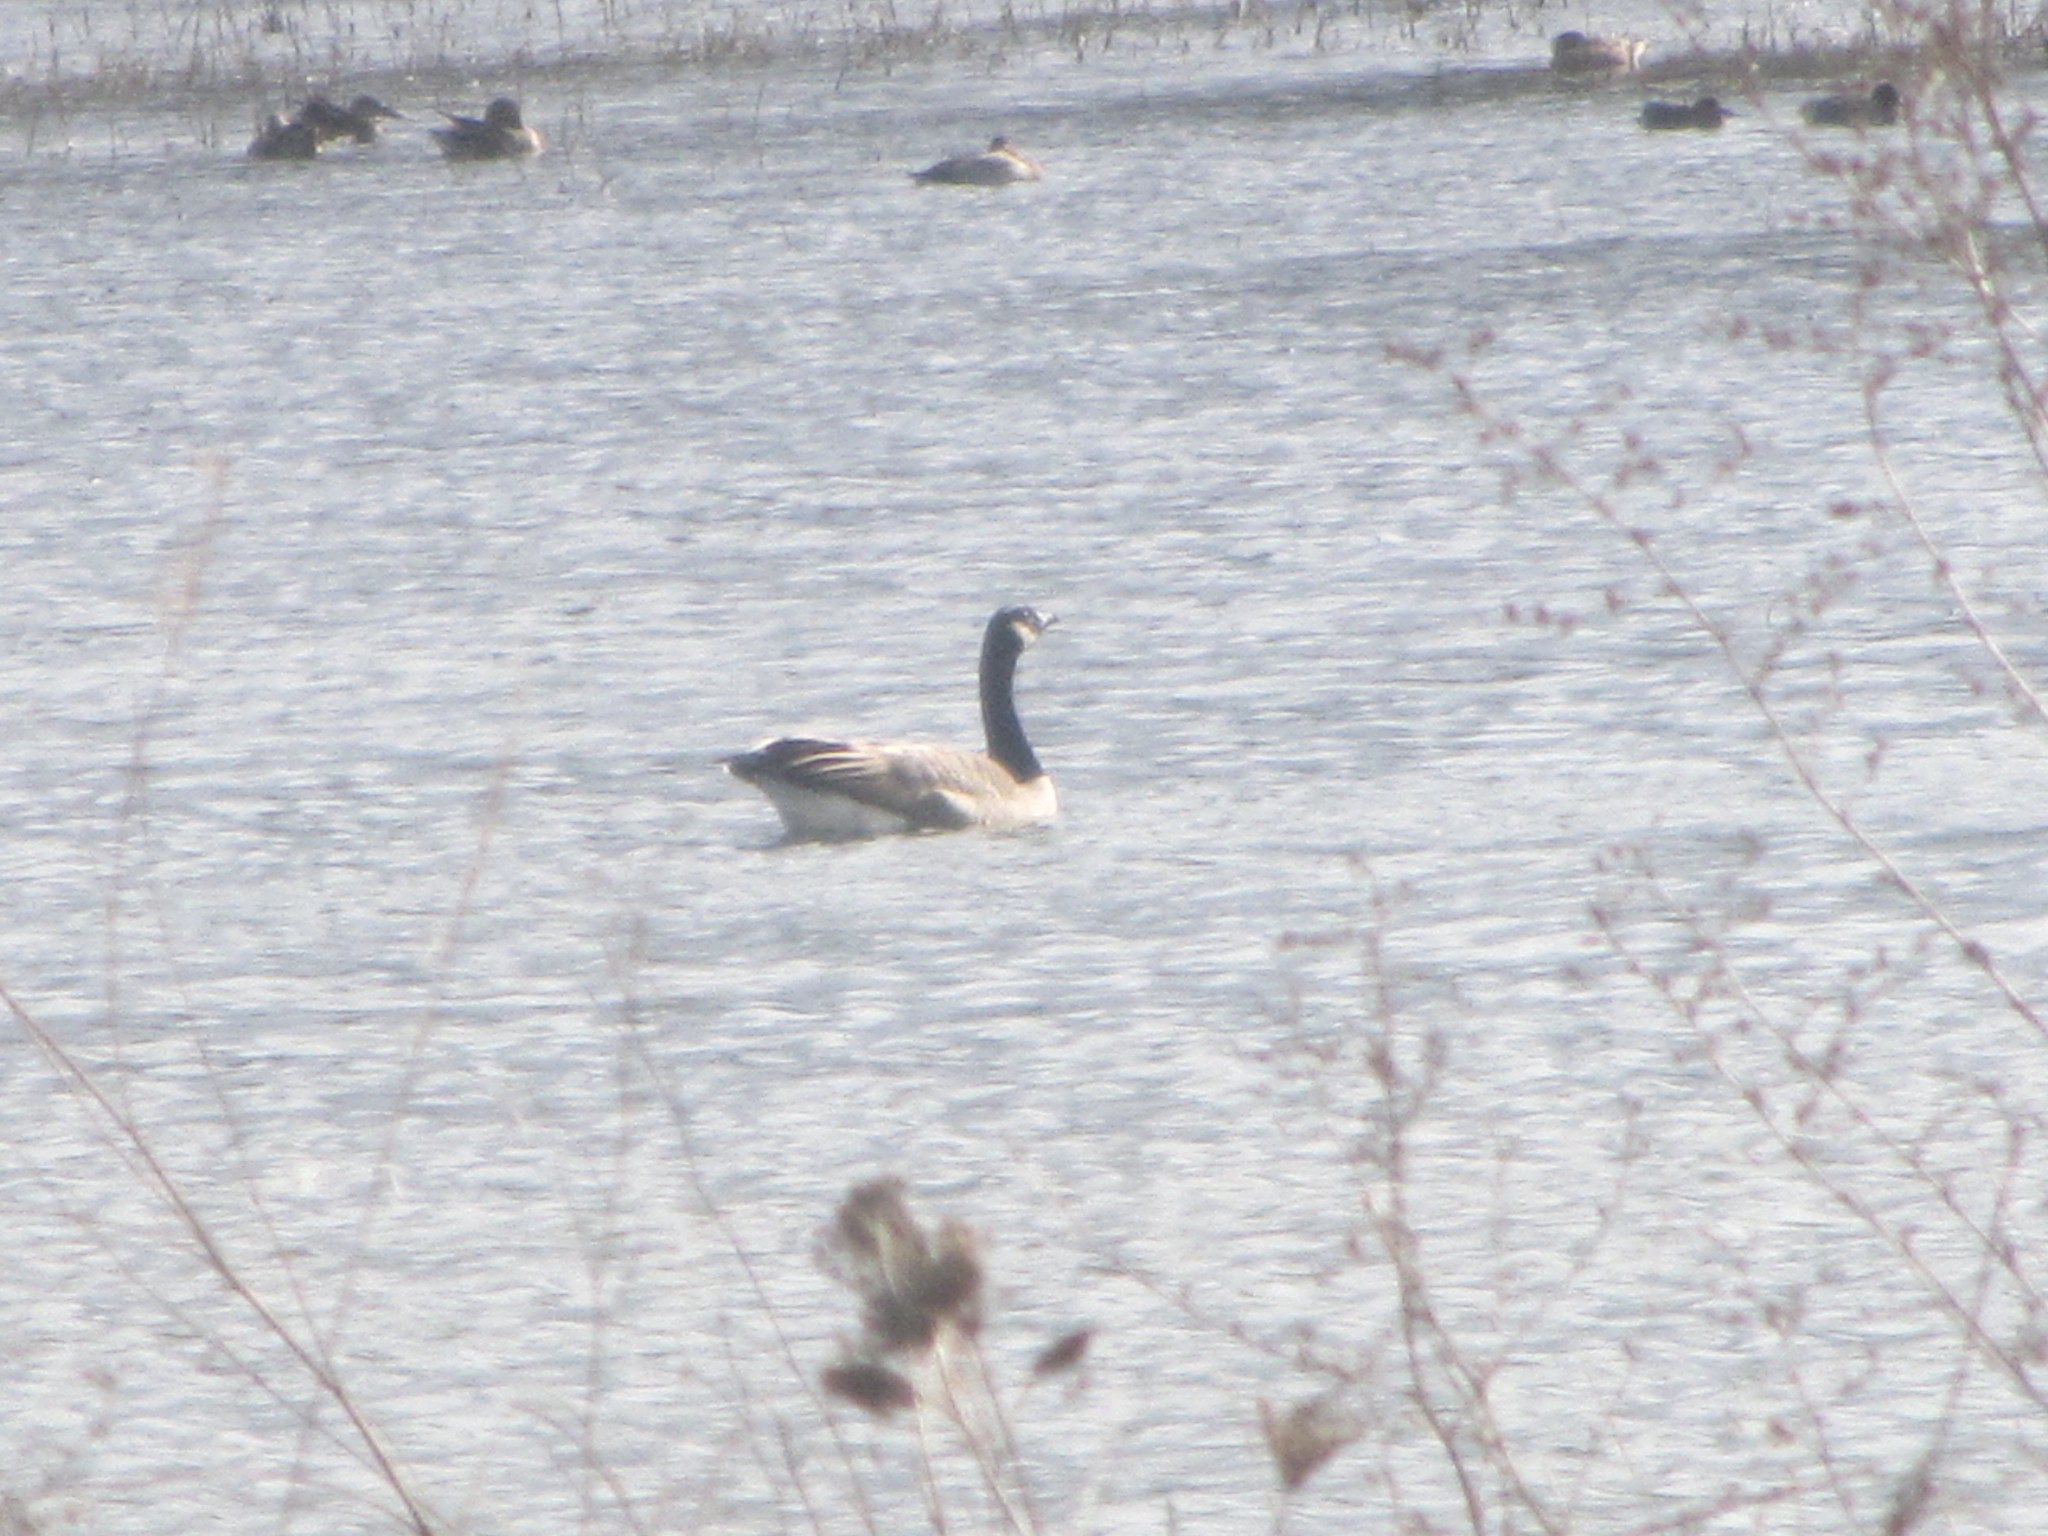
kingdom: Animalia
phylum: Chordata
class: Aves
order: Anseriformes
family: Anatidae
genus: Branta
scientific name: Branta canadensis
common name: Canada goose
